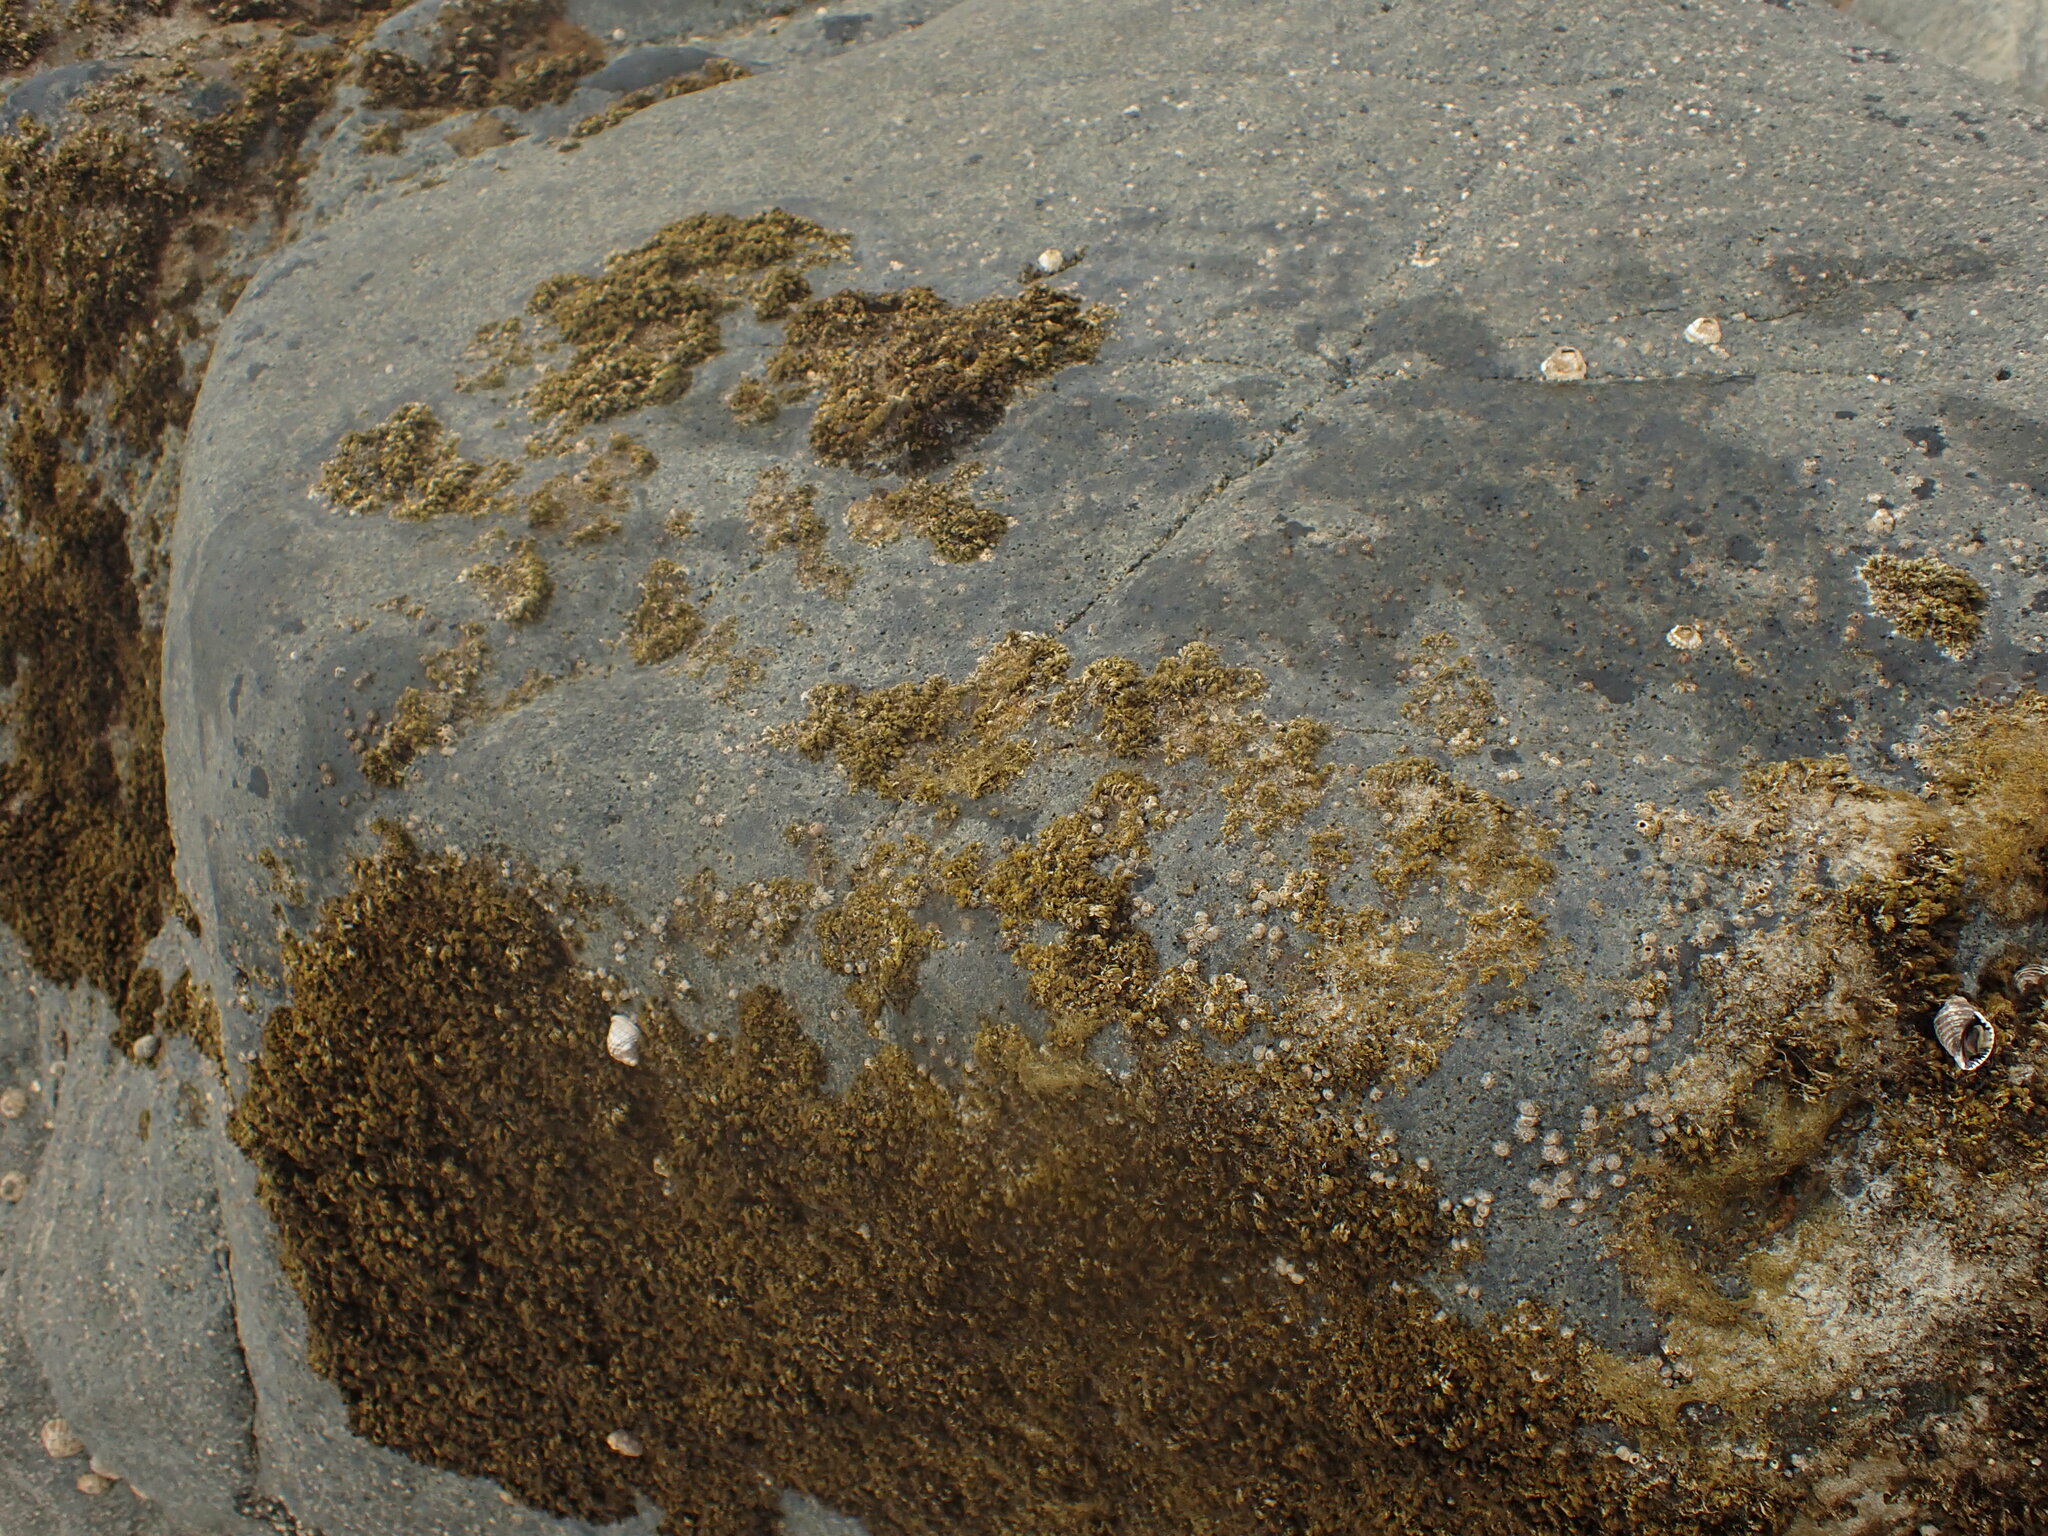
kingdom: Animalia
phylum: Mollusca
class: Gastropoda
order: Littorinimorpha
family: Littorinidae
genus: Risellopsis
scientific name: Risellopsis varia
